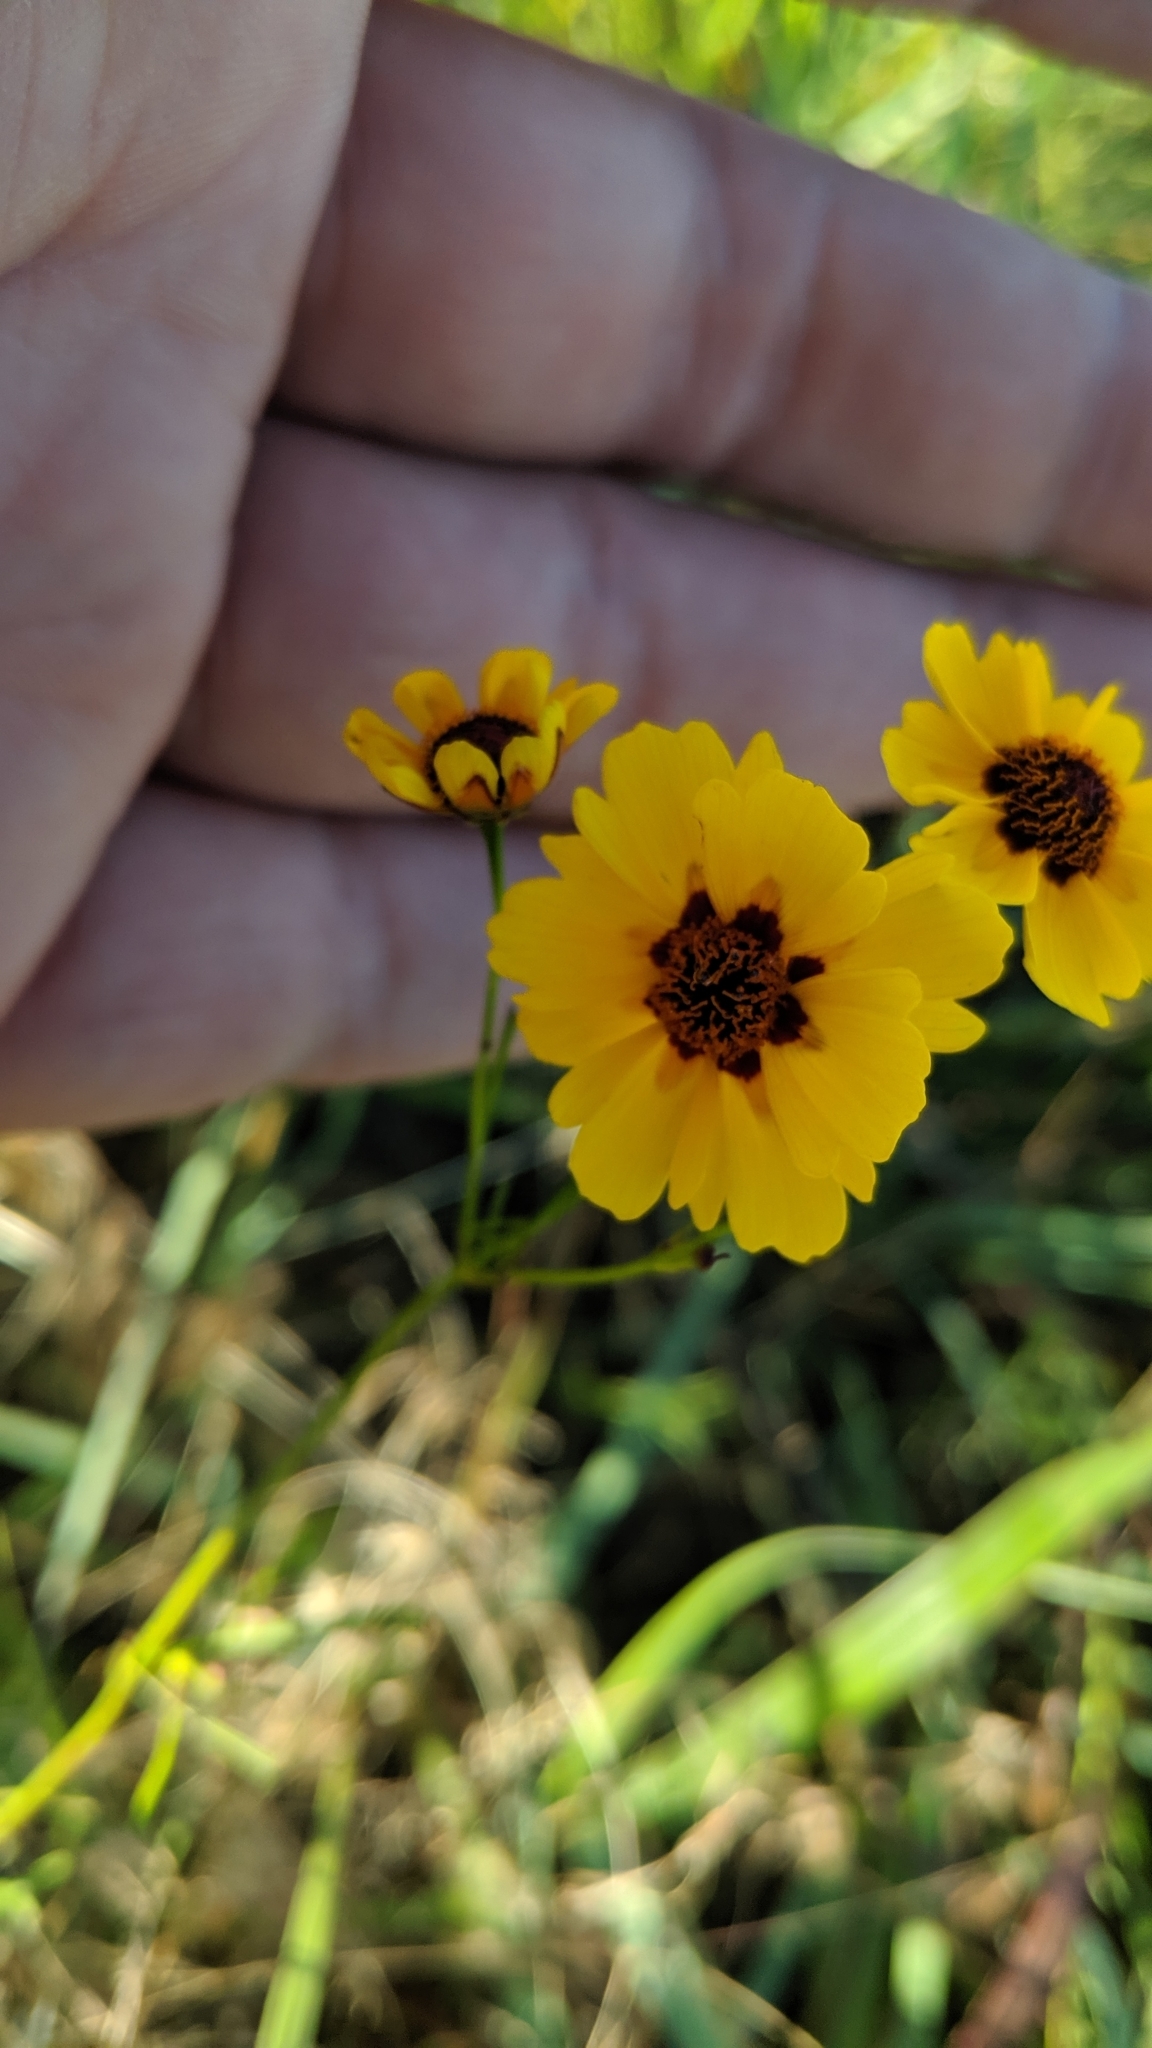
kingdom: Plantae
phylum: Tracheophyta
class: Magnoliopsida
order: Asterales
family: Asteraceae
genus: Coreopsis
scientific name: Coreopsis tinctoria
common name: Garden tickseed
